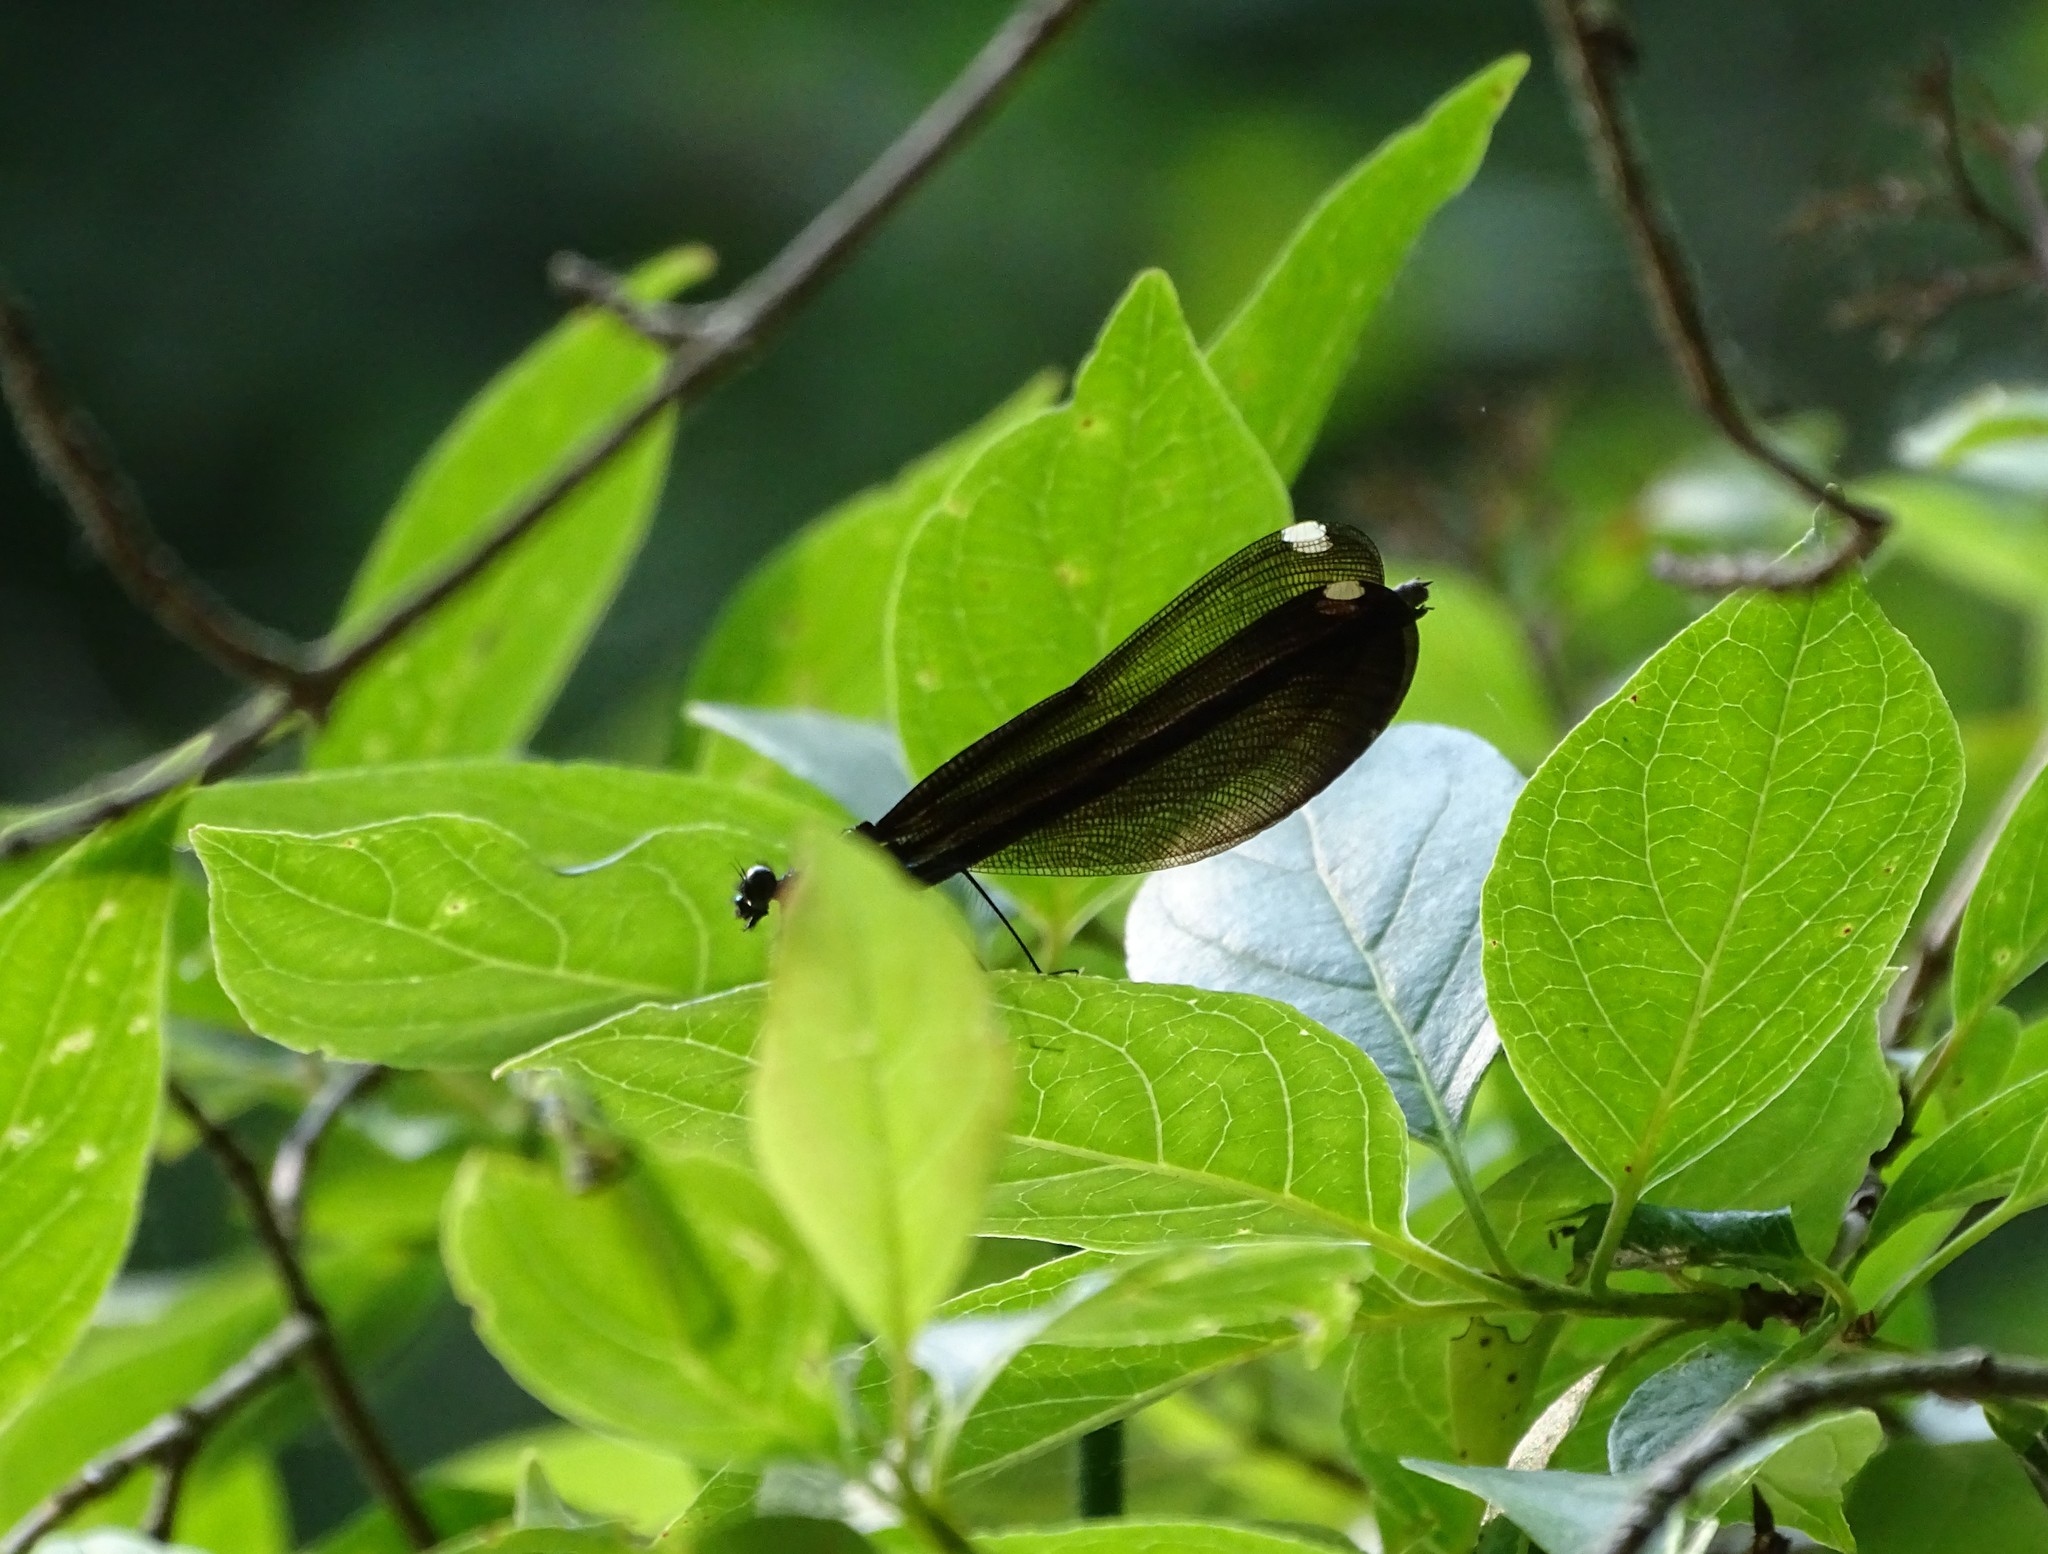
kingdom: Animalia
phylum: Arthropoda
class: Insecta
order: Odonata
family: Calopterygidae
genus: Calopteryx
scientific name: Calopteryx maculata
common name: Ebony jewelwing
